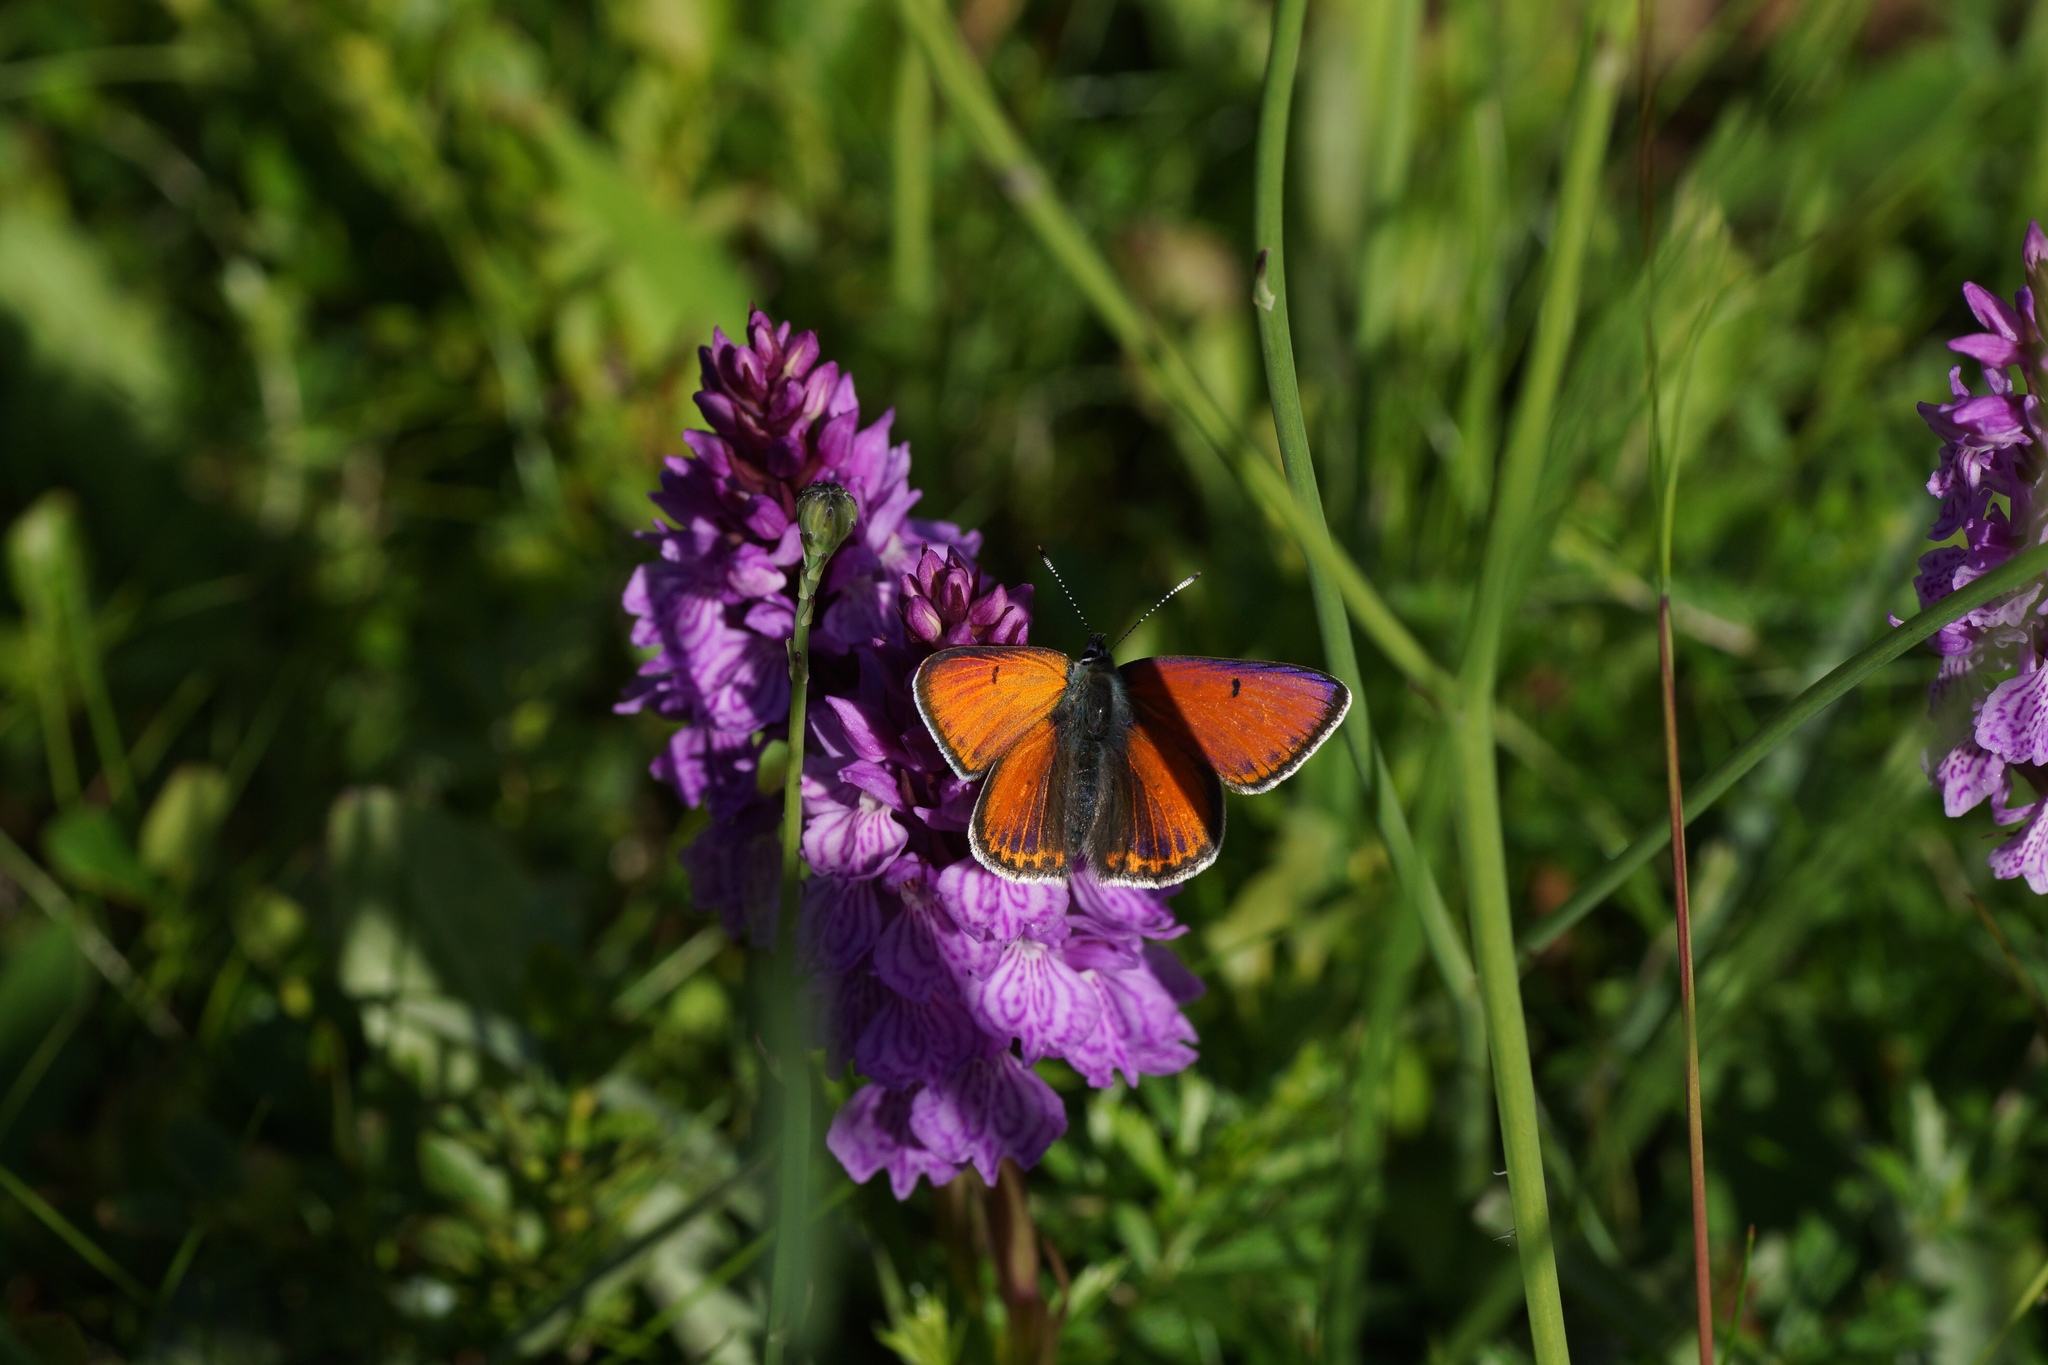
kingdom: Animalia
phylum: Arthropoda
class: Insecta
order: Lepidoptera
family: Lycaenidae
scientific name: Lycaenidae
